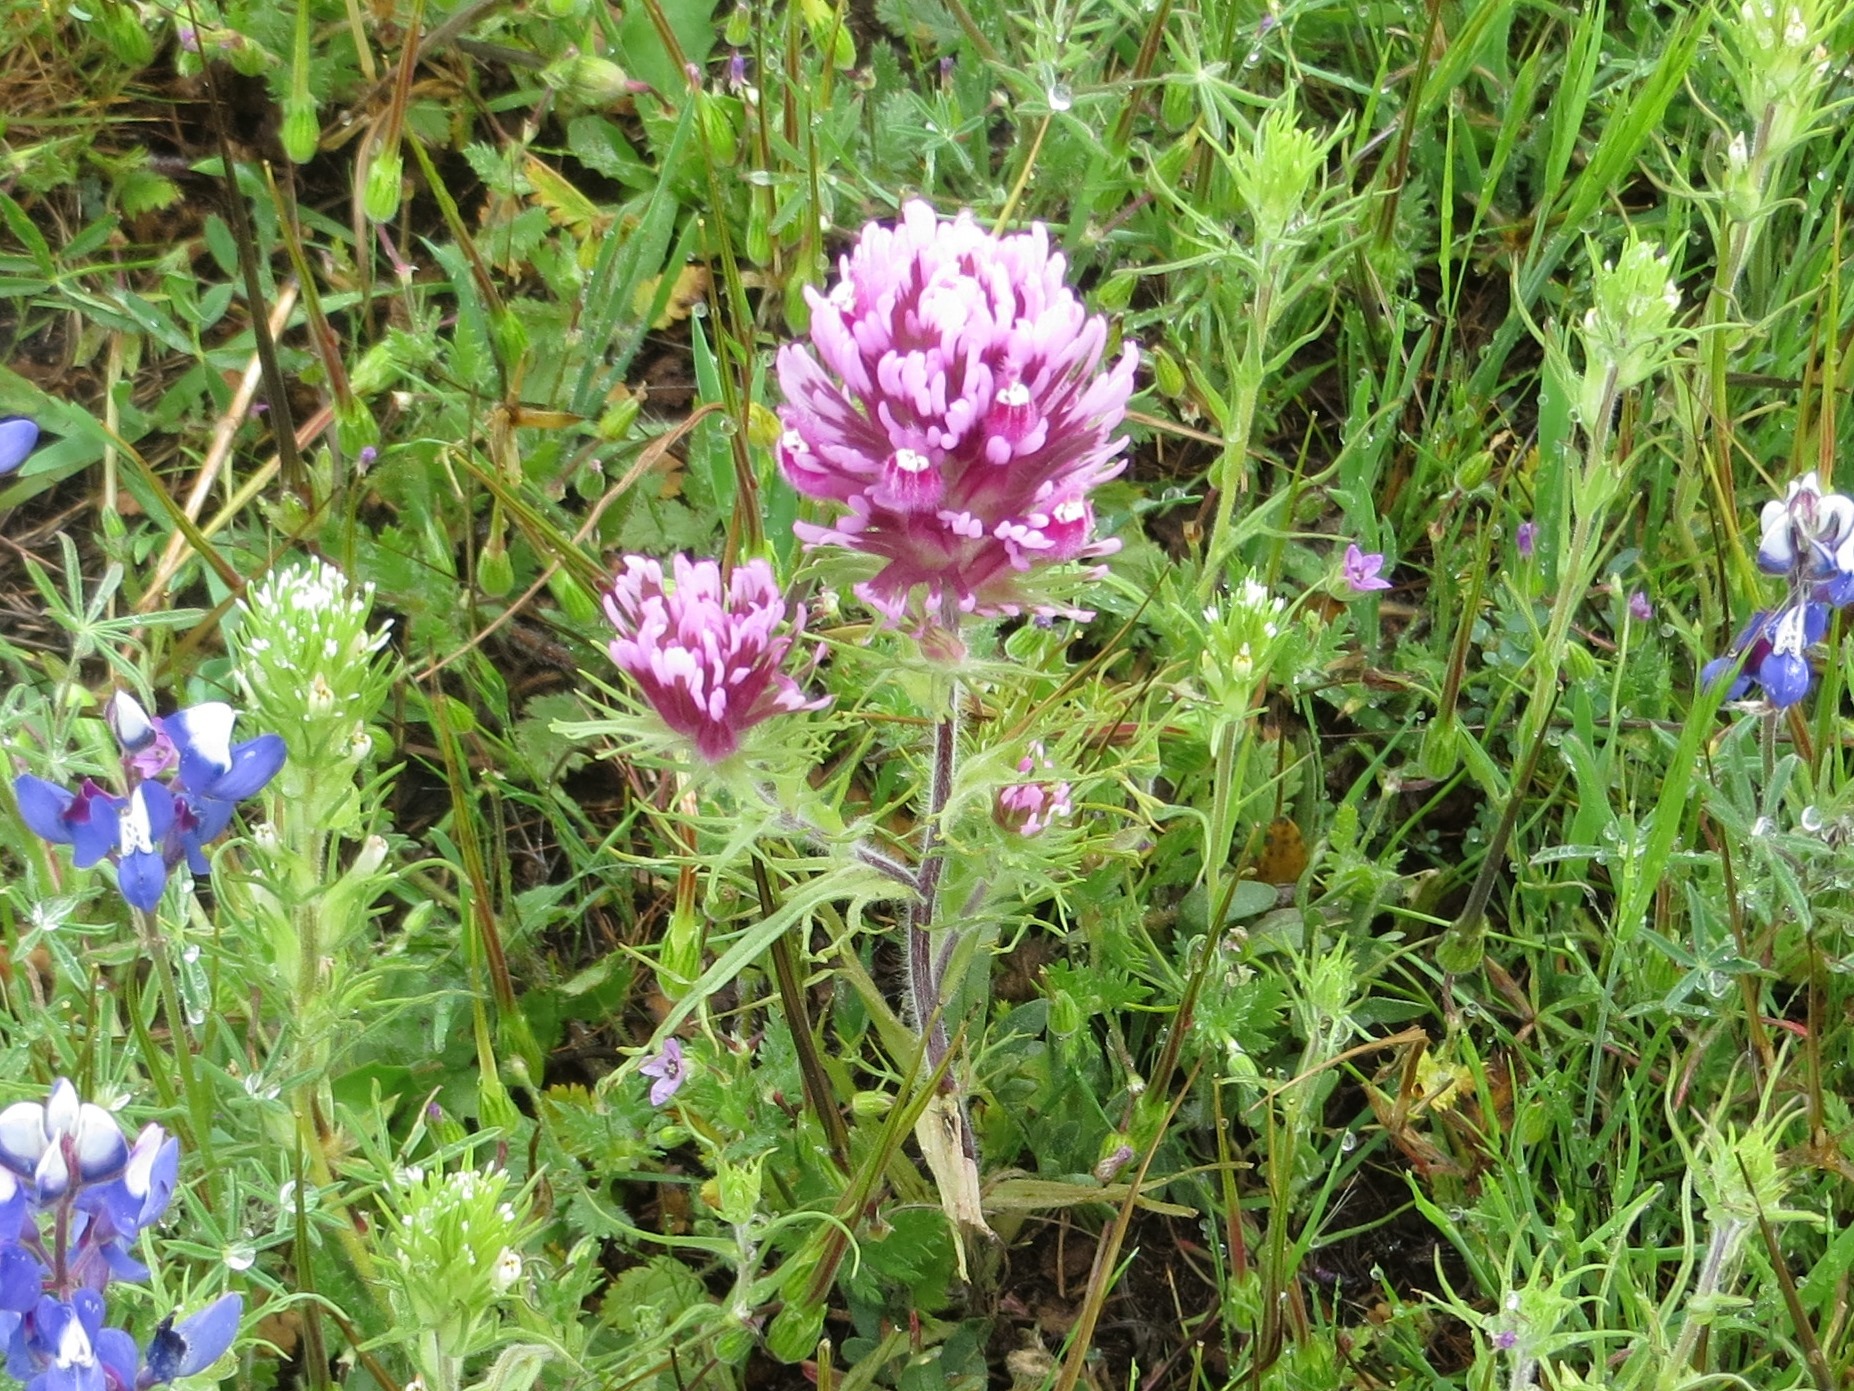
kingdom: Plantae
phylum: Tracheophyta
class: Magnoliopsida
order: Lamiales
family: Orobanchaceae
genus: Castilleja
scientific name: Castilleja exserta
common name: Purple owl-clover
